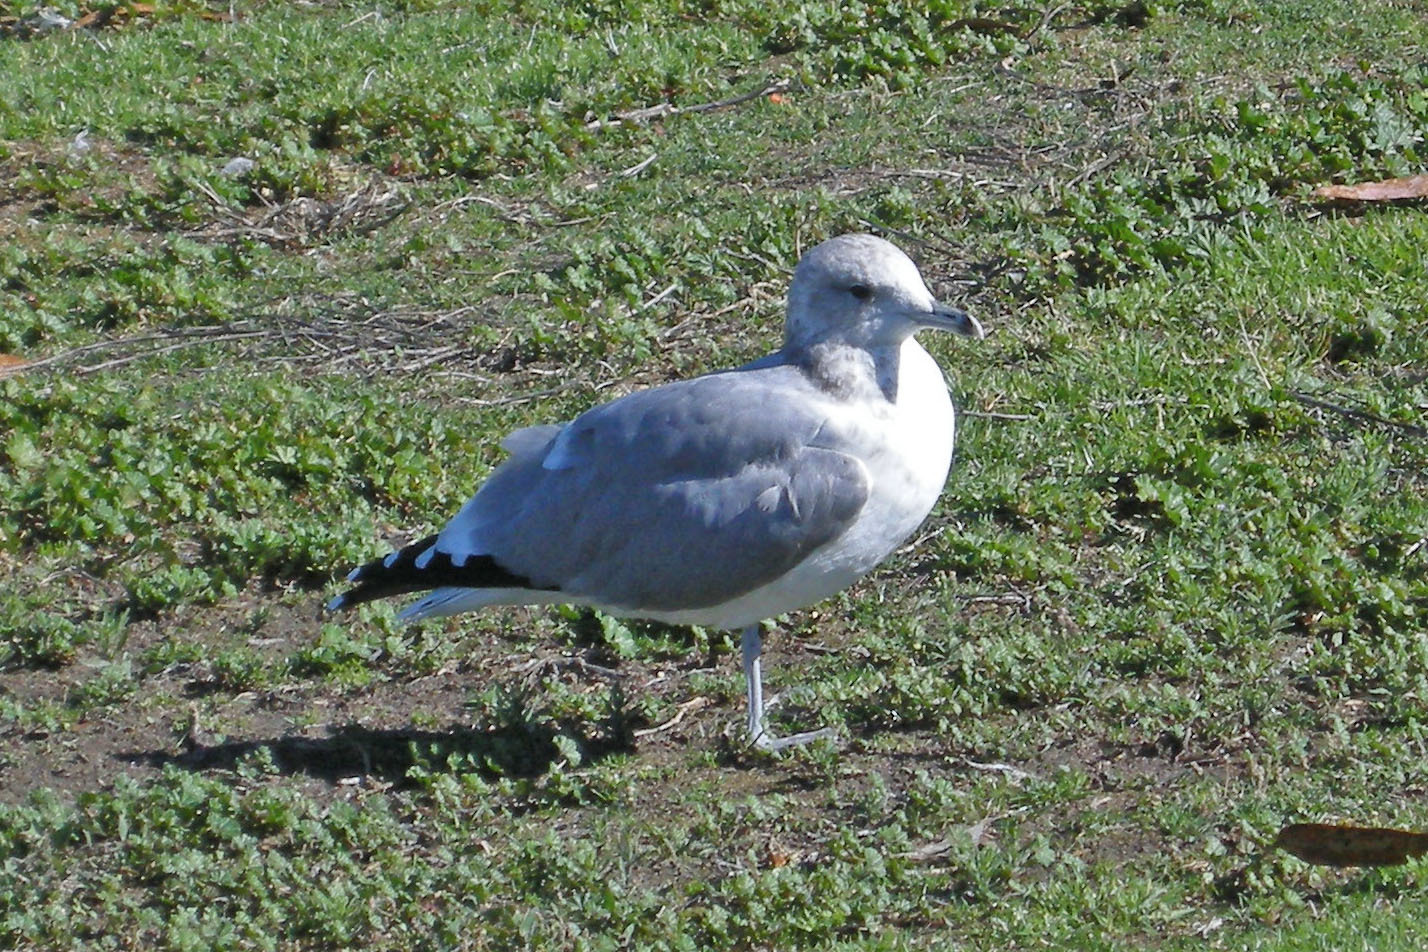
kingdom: Animalia
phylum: Chordata
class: Aves
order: Charadriiformes
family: Laridae
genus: Larus
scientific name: Larus californicus
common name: California gull
